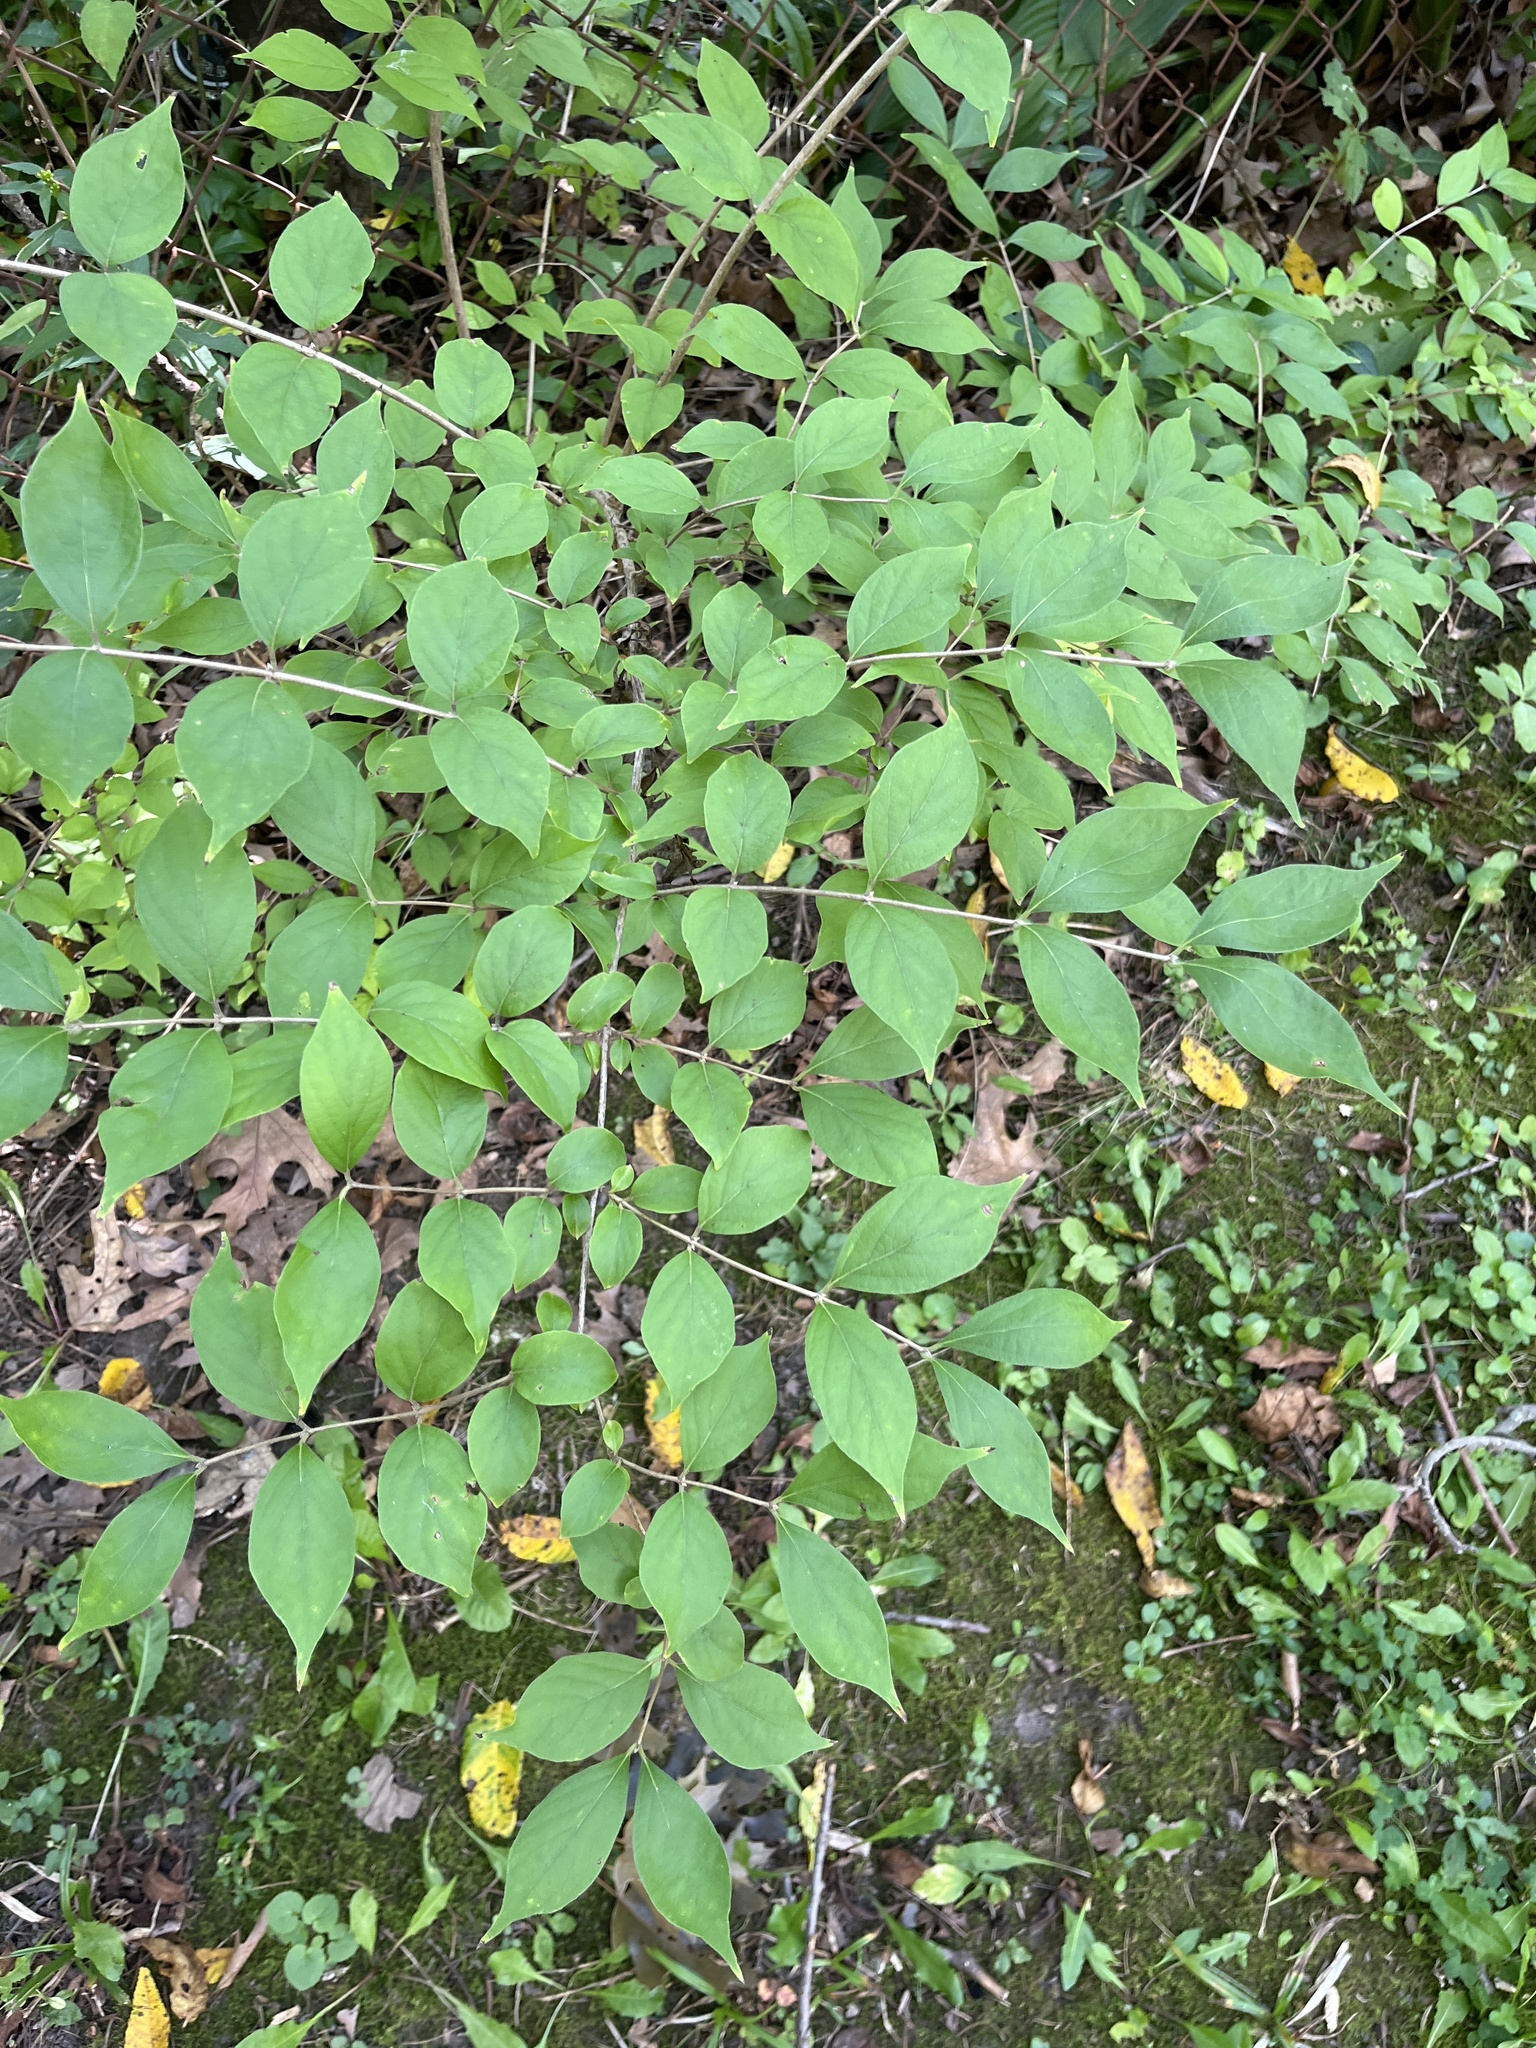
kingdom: Plantae
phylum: Tracheophyta
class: Magnoliopsida
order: Dipsacales
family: Caprifoliaceae
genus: Lonicera
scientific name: Lonicera maackii
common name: Amur honeysuckle
